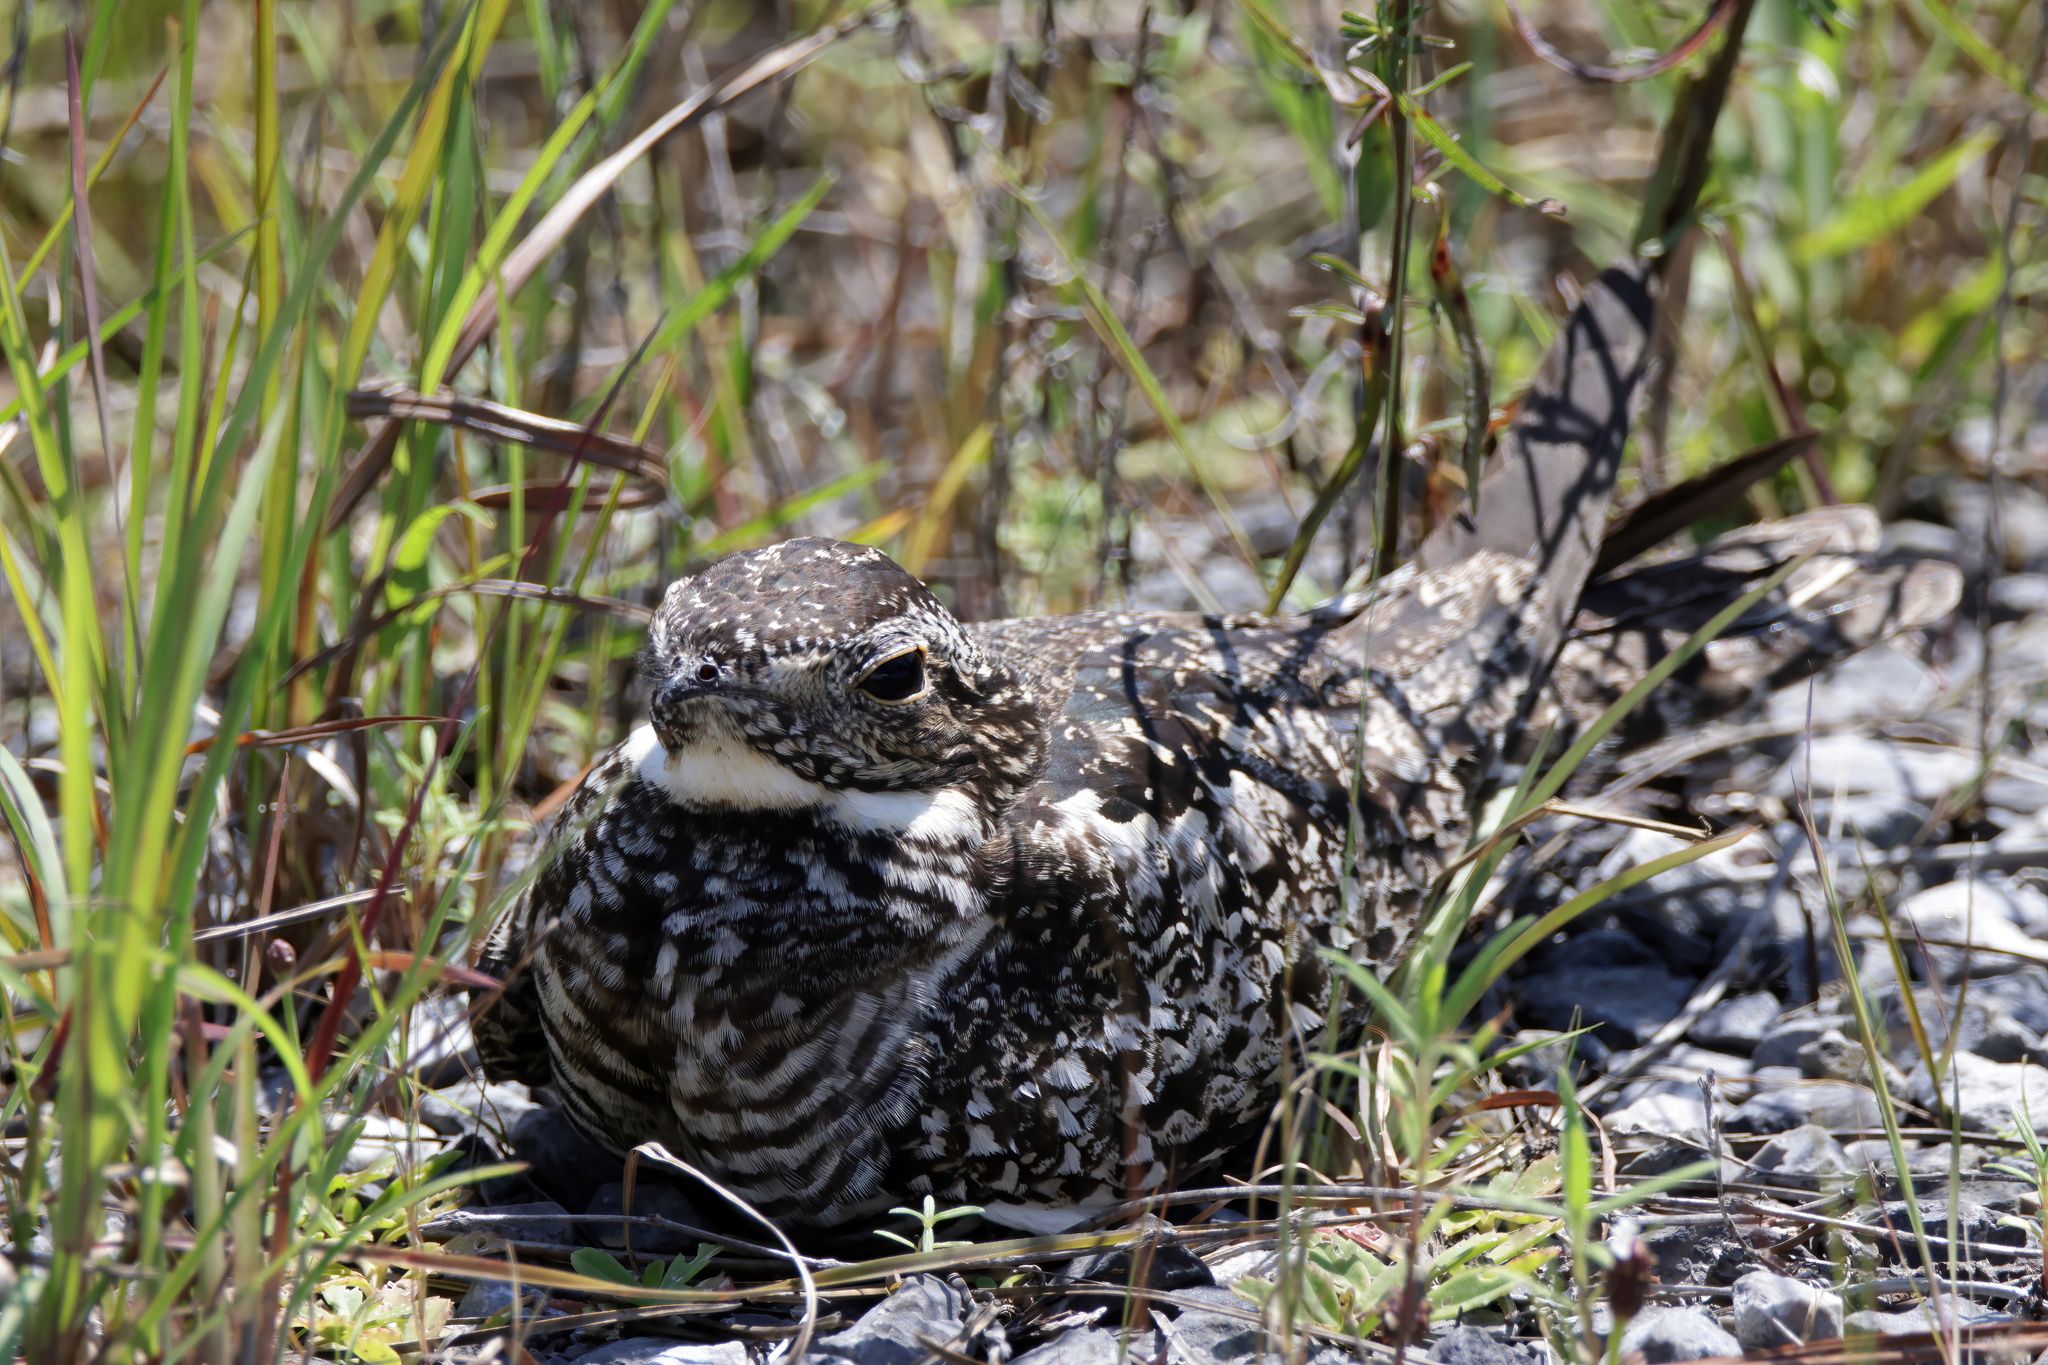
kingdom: Animalia
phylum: Chordata
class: Aves
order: Caprimulgiformes
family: Caprimulgidae
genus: Chordeiles
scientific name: Chordeiles minor
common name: Common nighthawk
